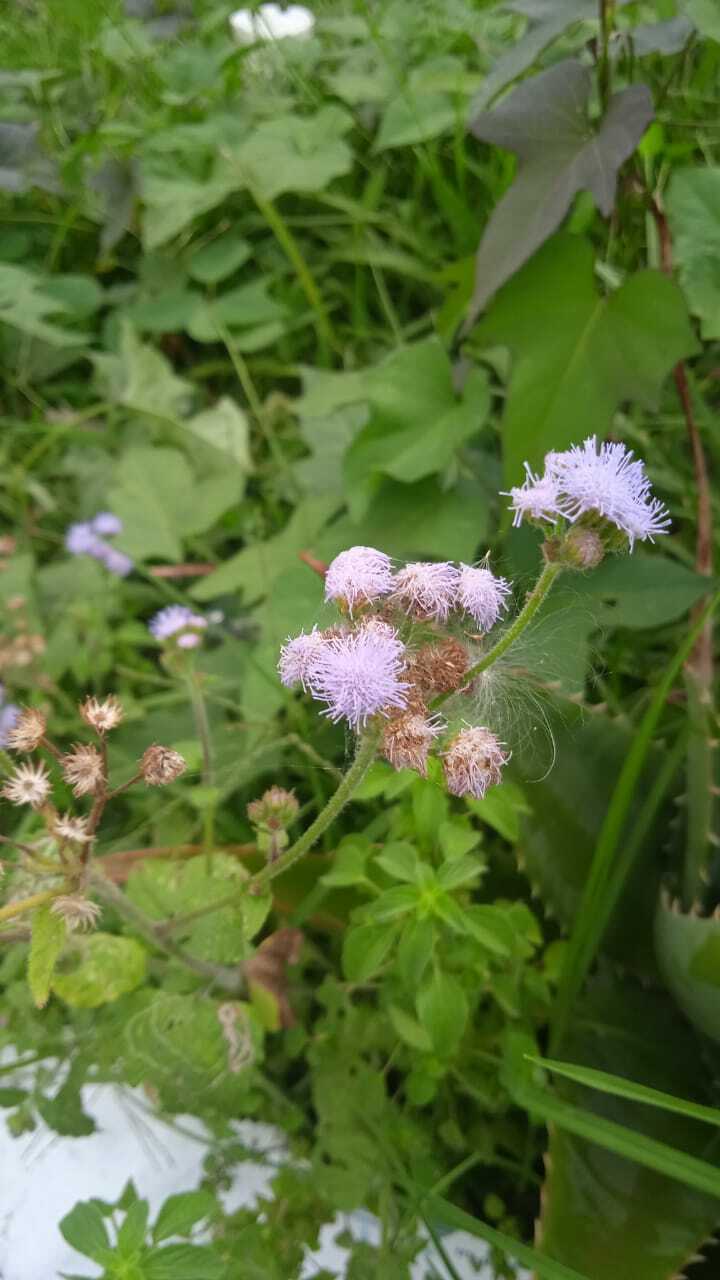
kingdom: Plantae
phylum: Tracheophyta
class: Magnoliopsida
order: Asterales
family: Asteraceae
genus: Ageratum
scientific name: Ageratum houstonianum
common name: Bluemink
